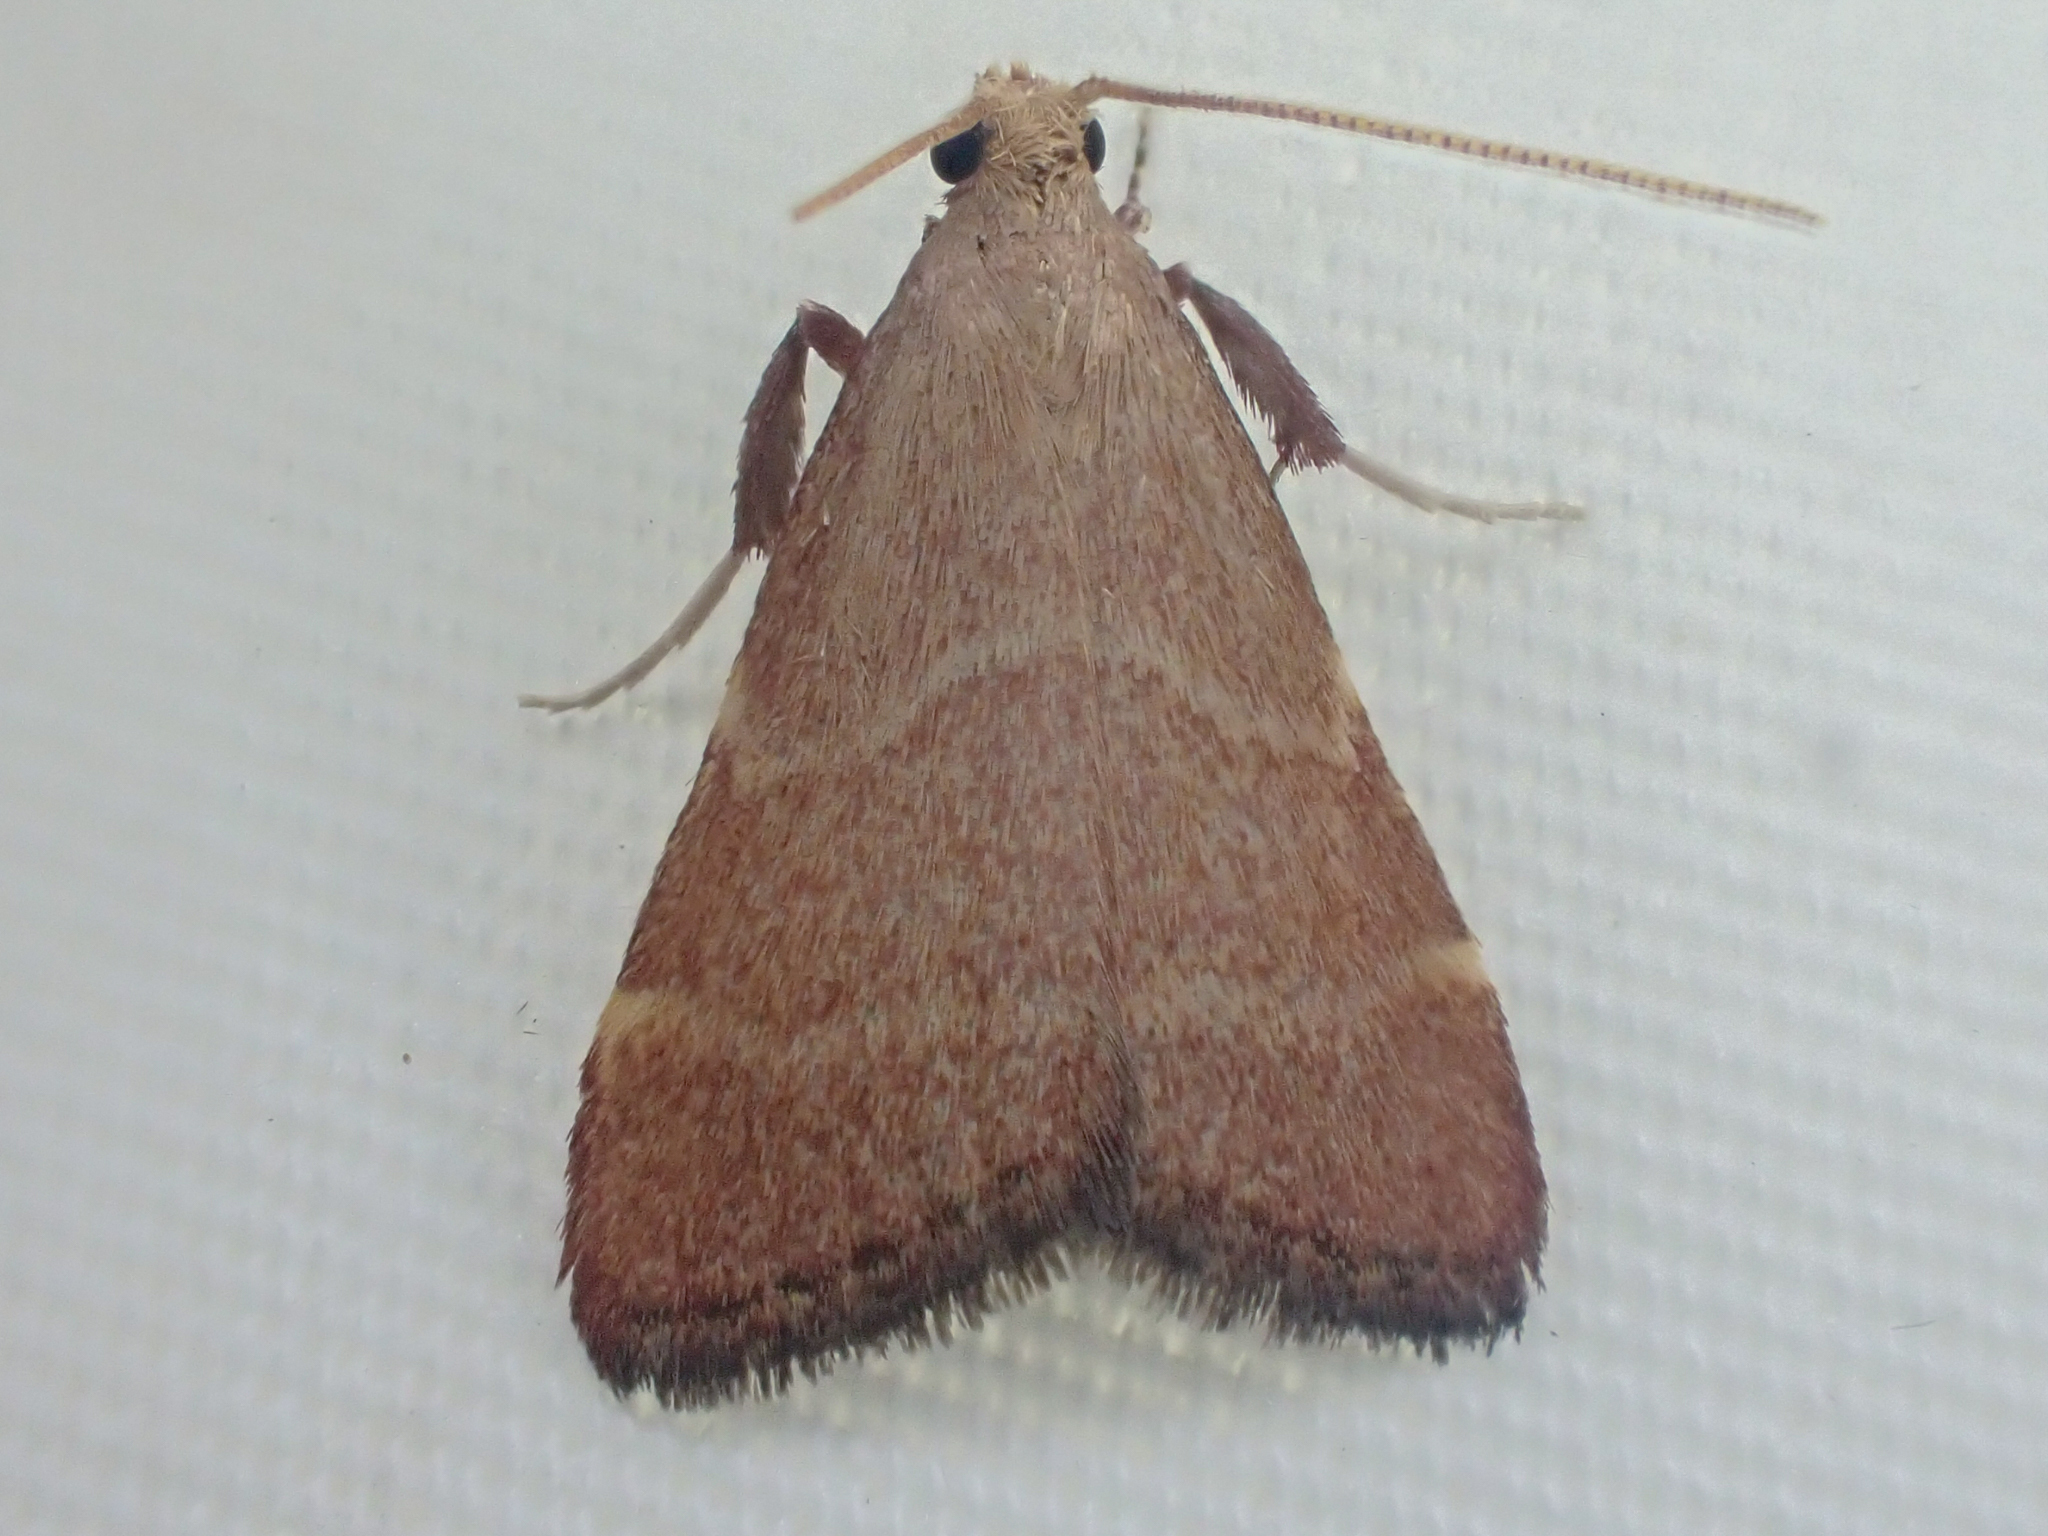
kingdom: Animalia
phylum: Arthropoda
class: Insecta
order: Lepidoptera
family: Pyralidae
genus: Arta
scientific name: Arta epicoenalis
